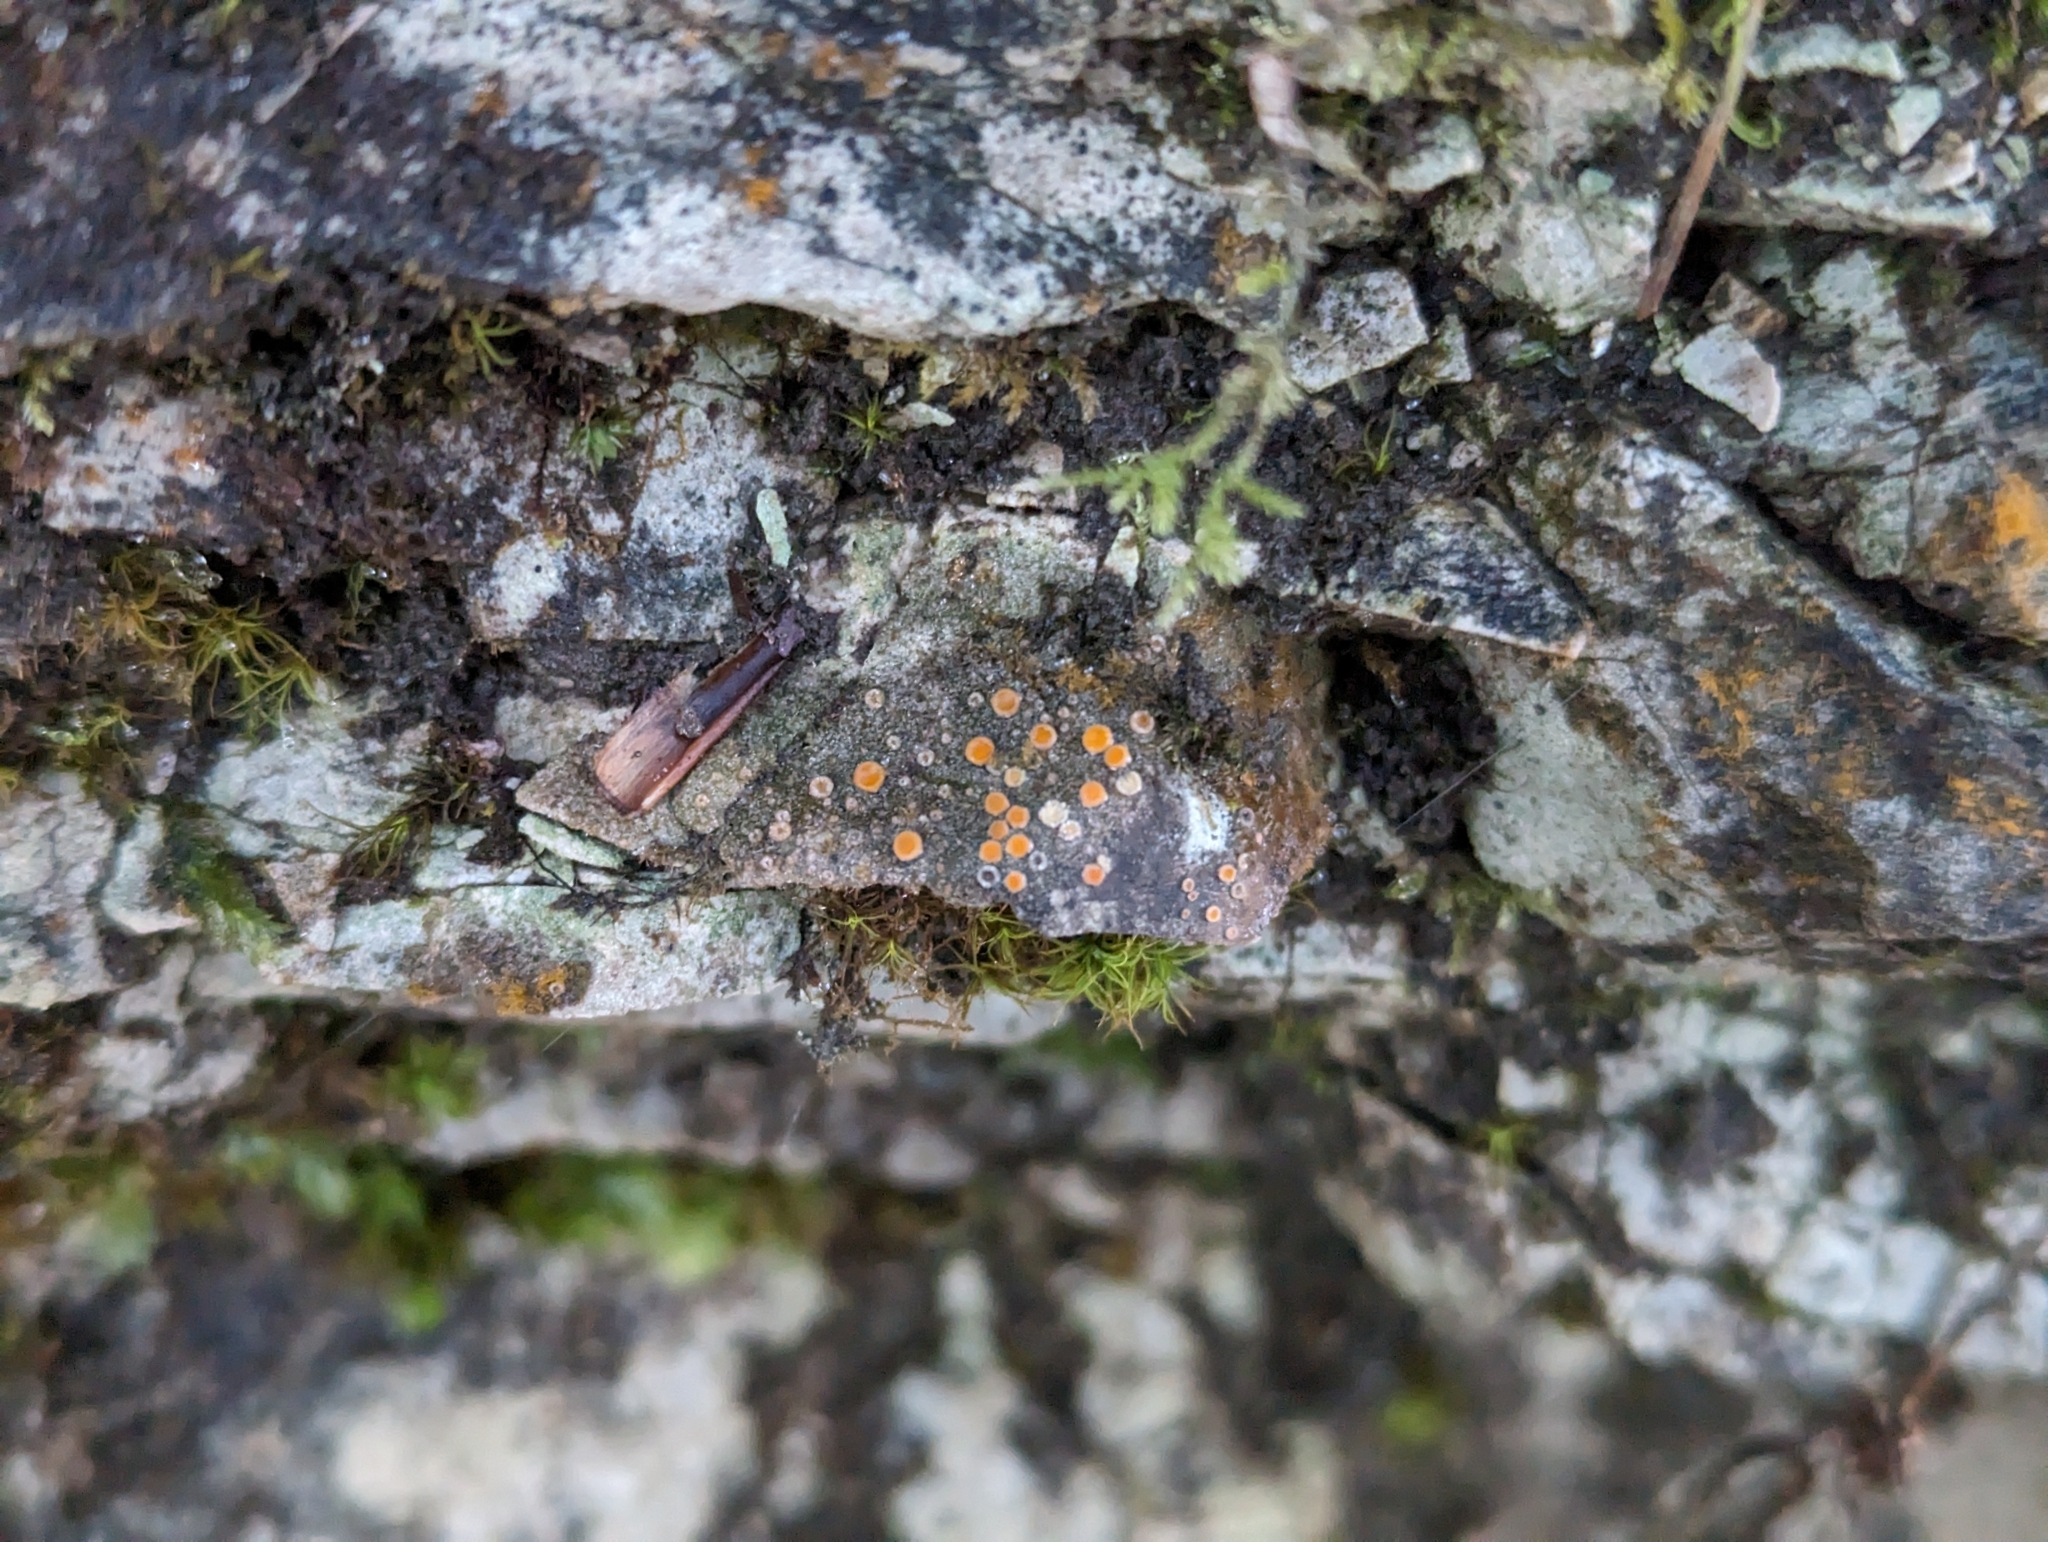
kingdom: Fungi
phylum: Ascomycota
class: Lecanoromycetes
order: Gyalectales
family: Gyalectaceae
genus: Gyalecta
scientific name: Gyalecta jenensis
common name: Rock dimple lichen
